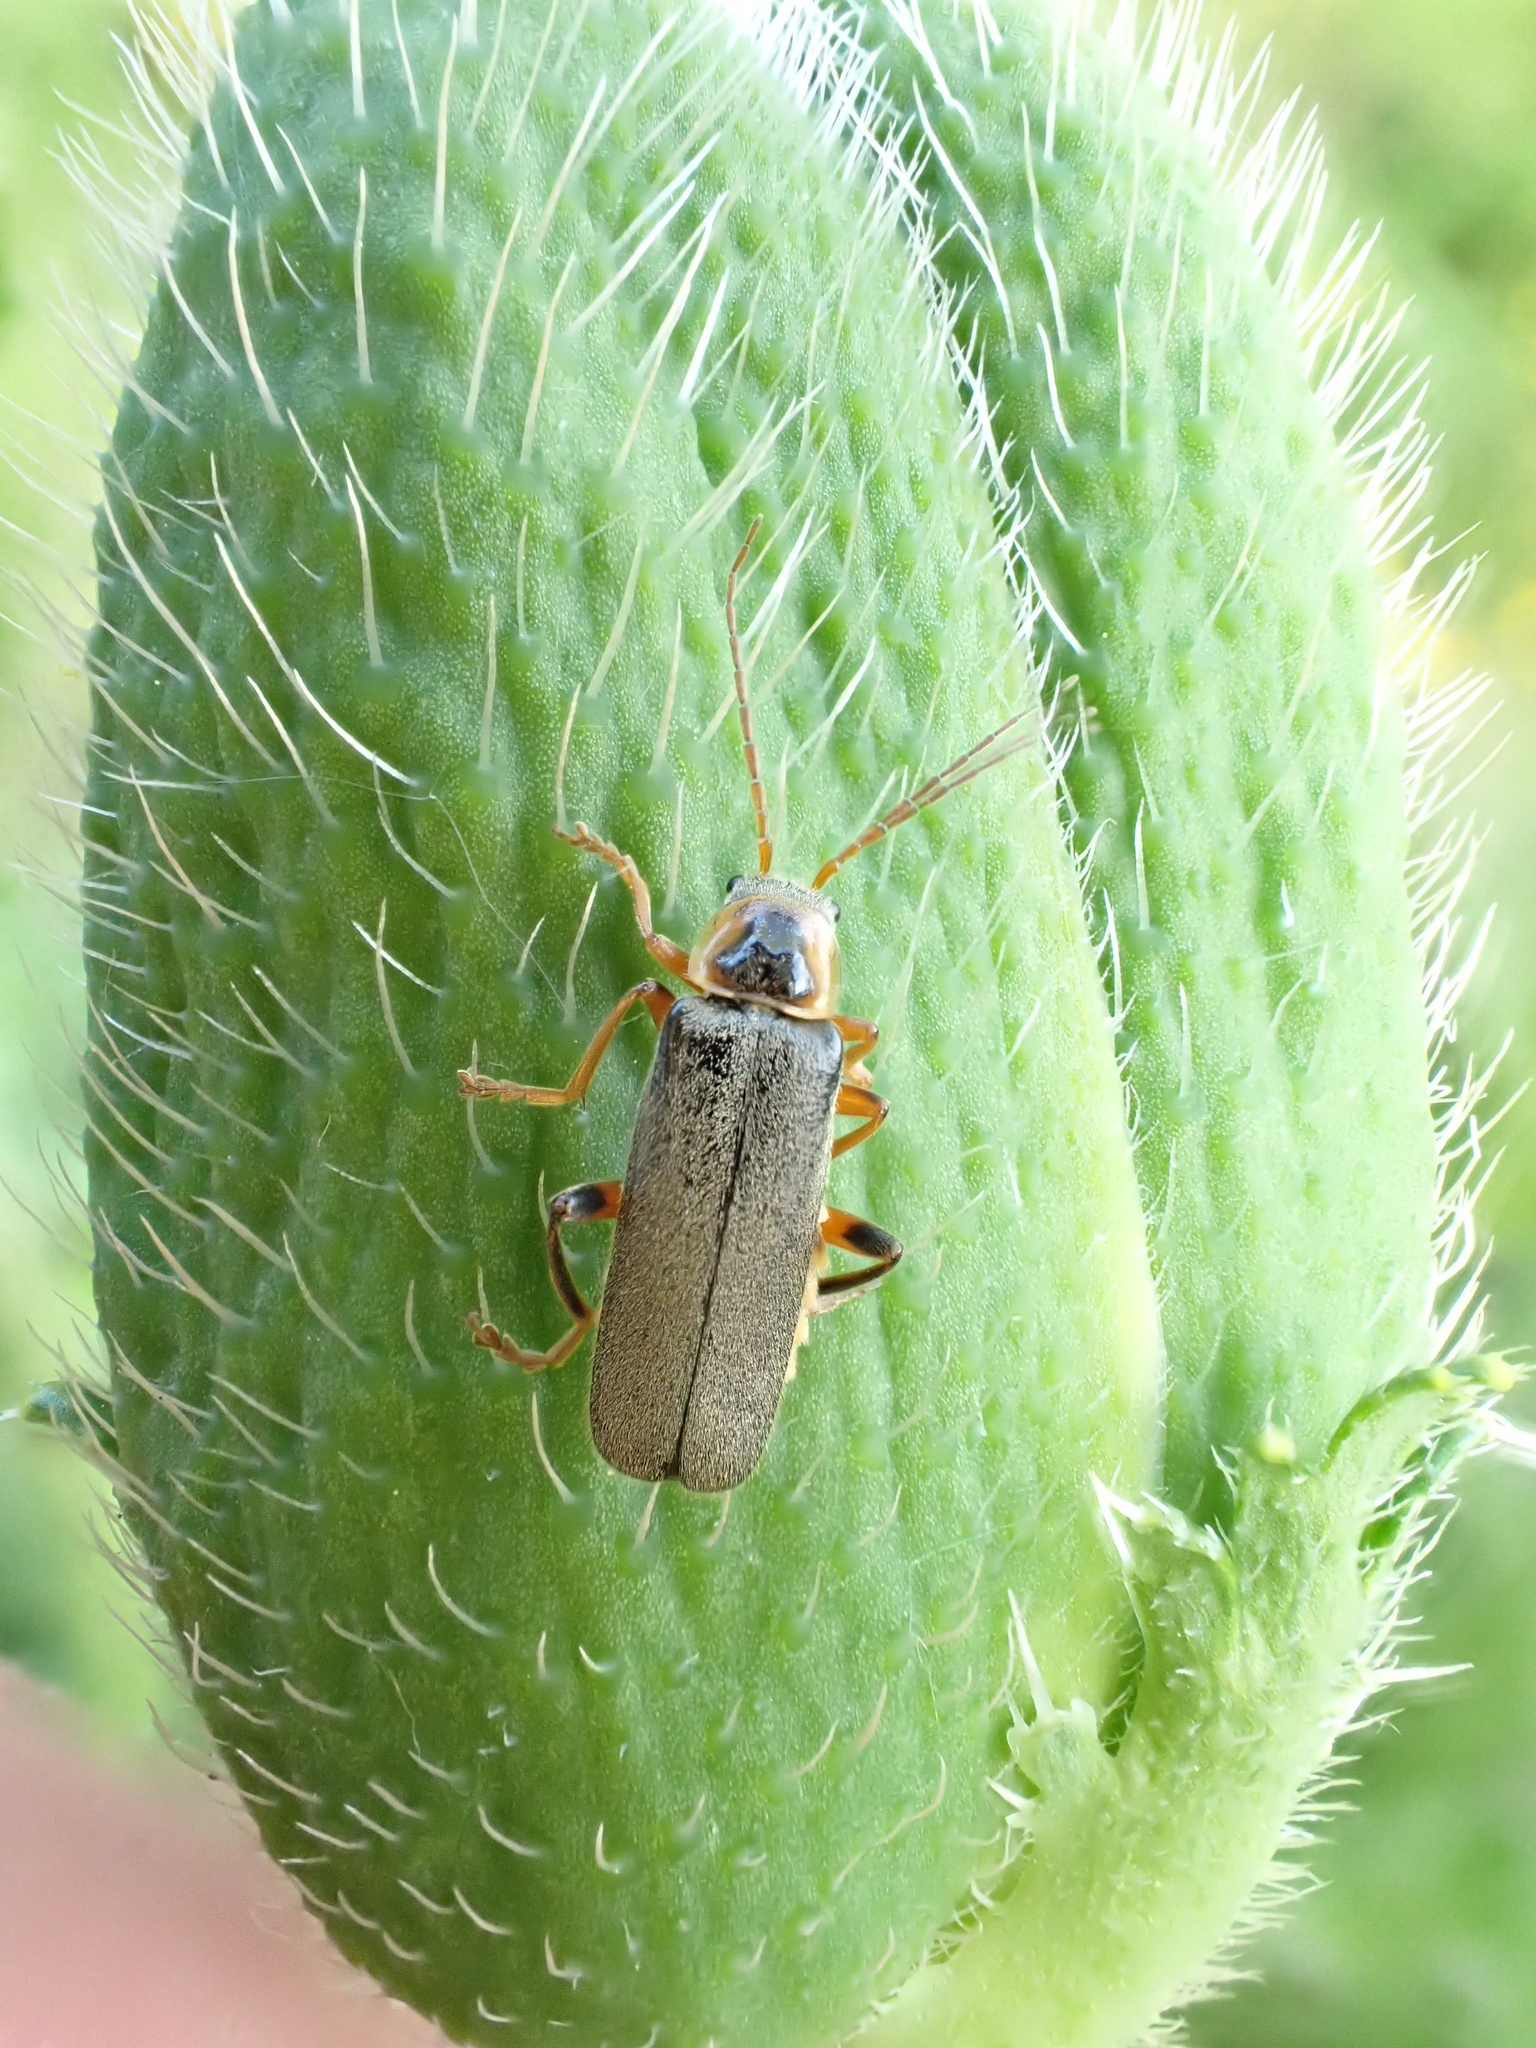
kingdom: Animalia
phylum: Arthropoda
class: Insecta
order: Coleoptera
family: Cantharidae
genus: Cantharis
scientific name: Cantharis nigricans
